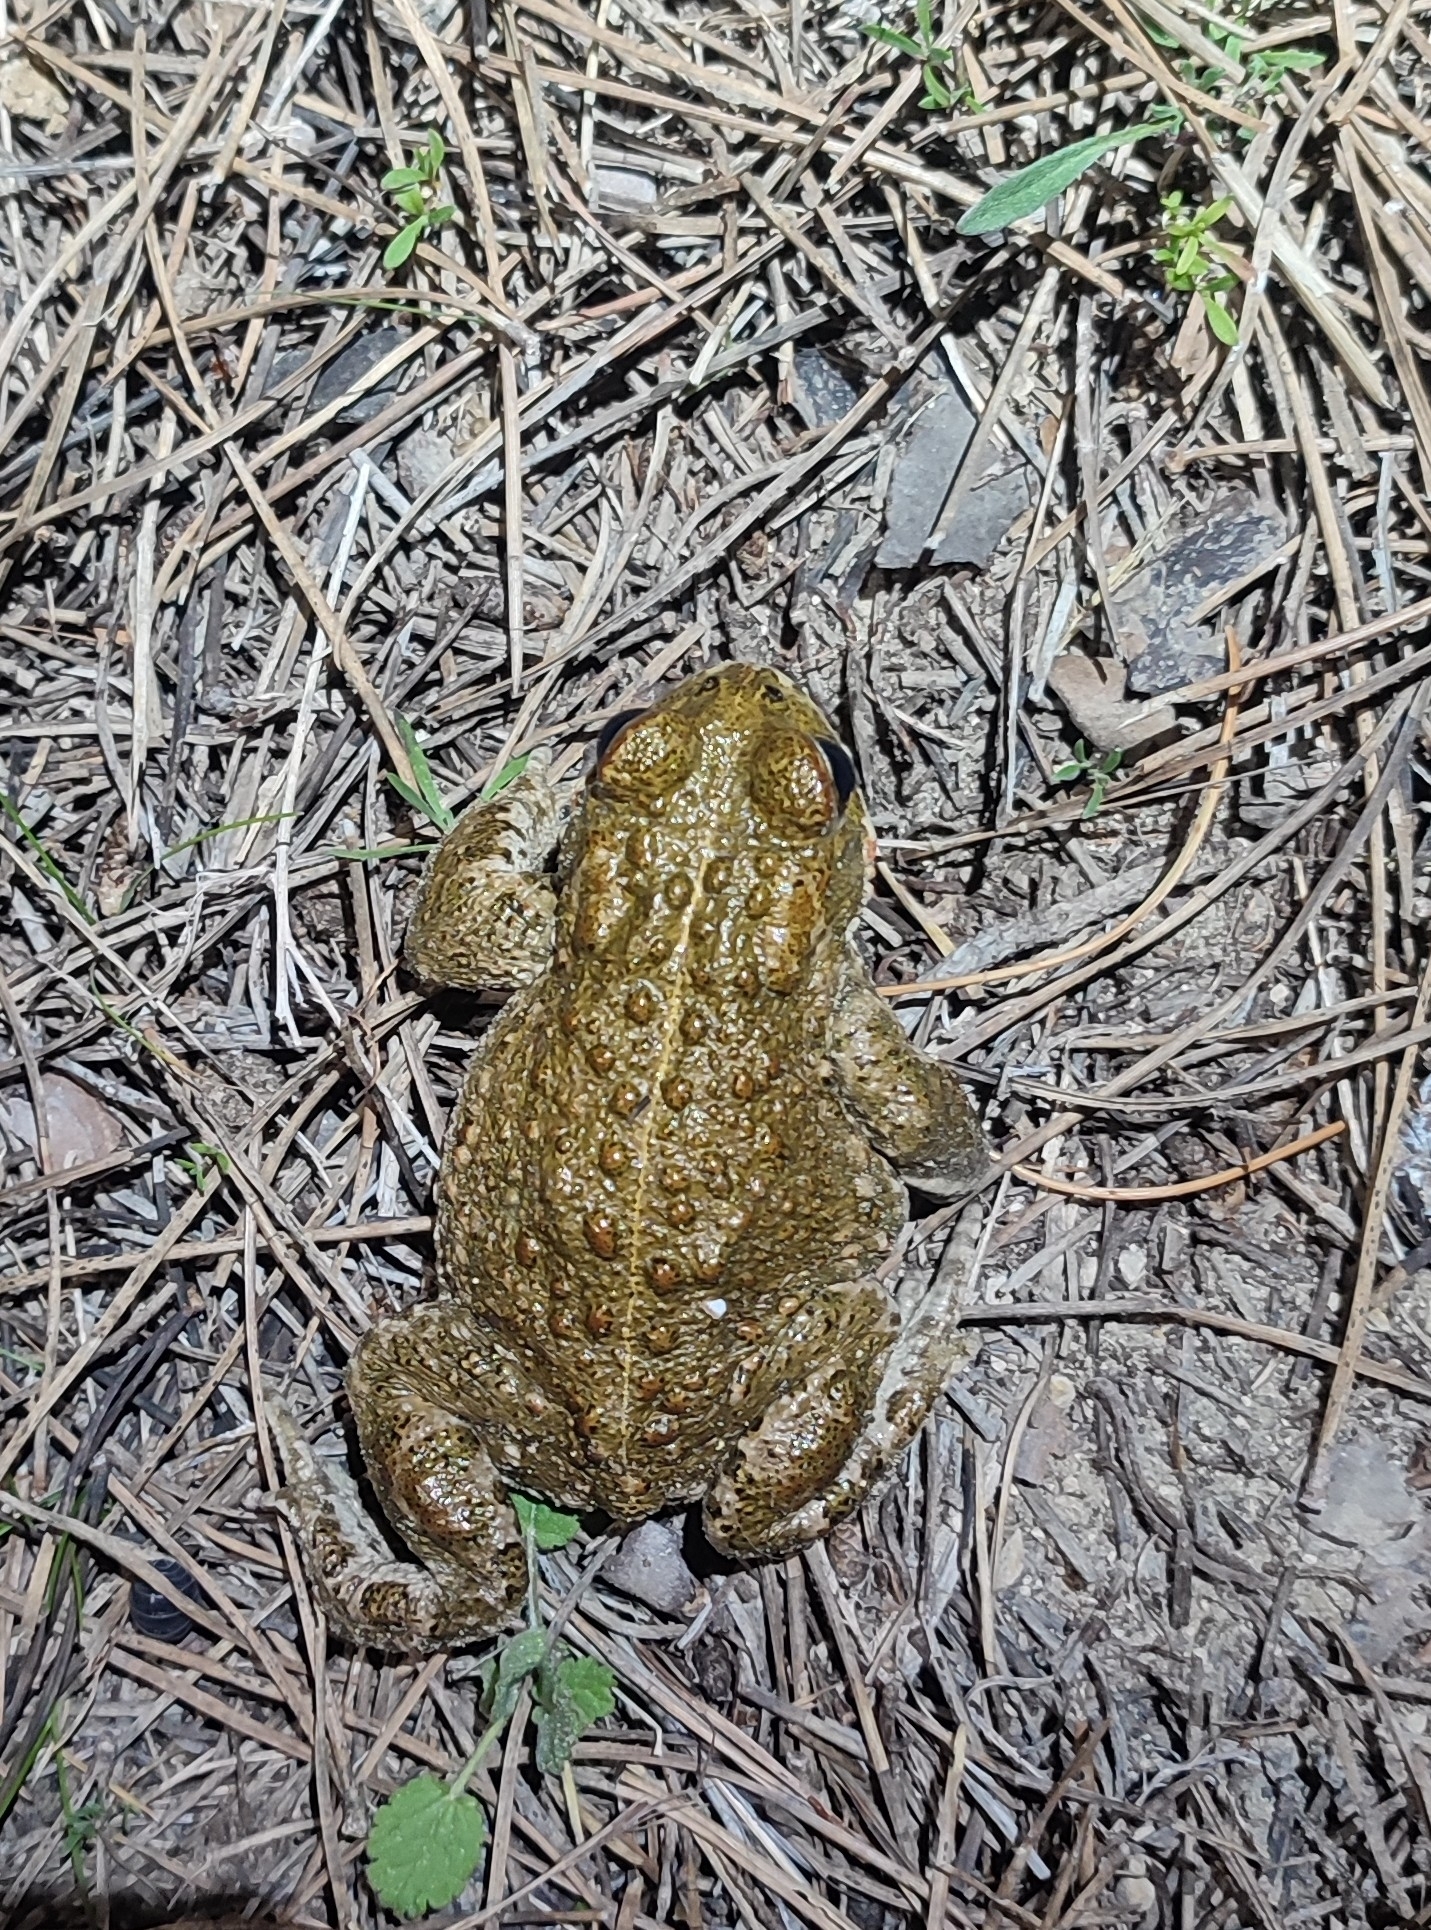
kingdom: Animalia
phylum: Chordata
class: Amphibia
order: Anura
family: Bufonidae
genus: Epidalea
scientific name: Epidalea calamita
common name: Natterjack toad
